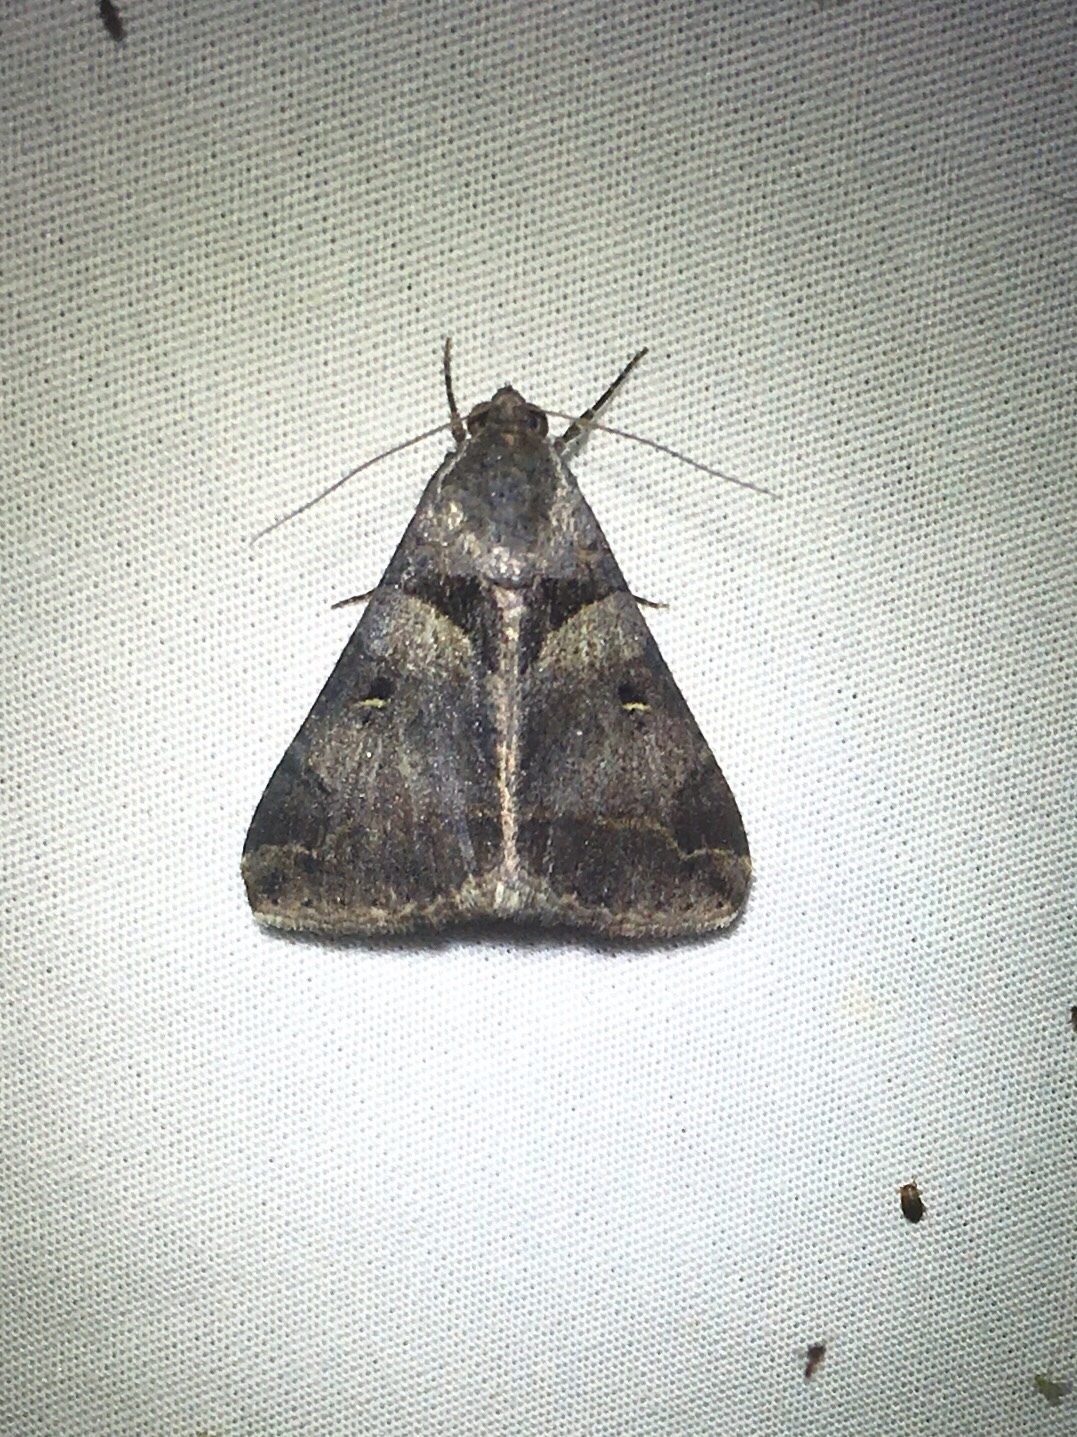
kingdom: Animalia
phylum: Arthropoda
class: Insecta
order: Lepidoptera
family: Erebidae
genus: Melipotis
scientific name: Melipotis florida
